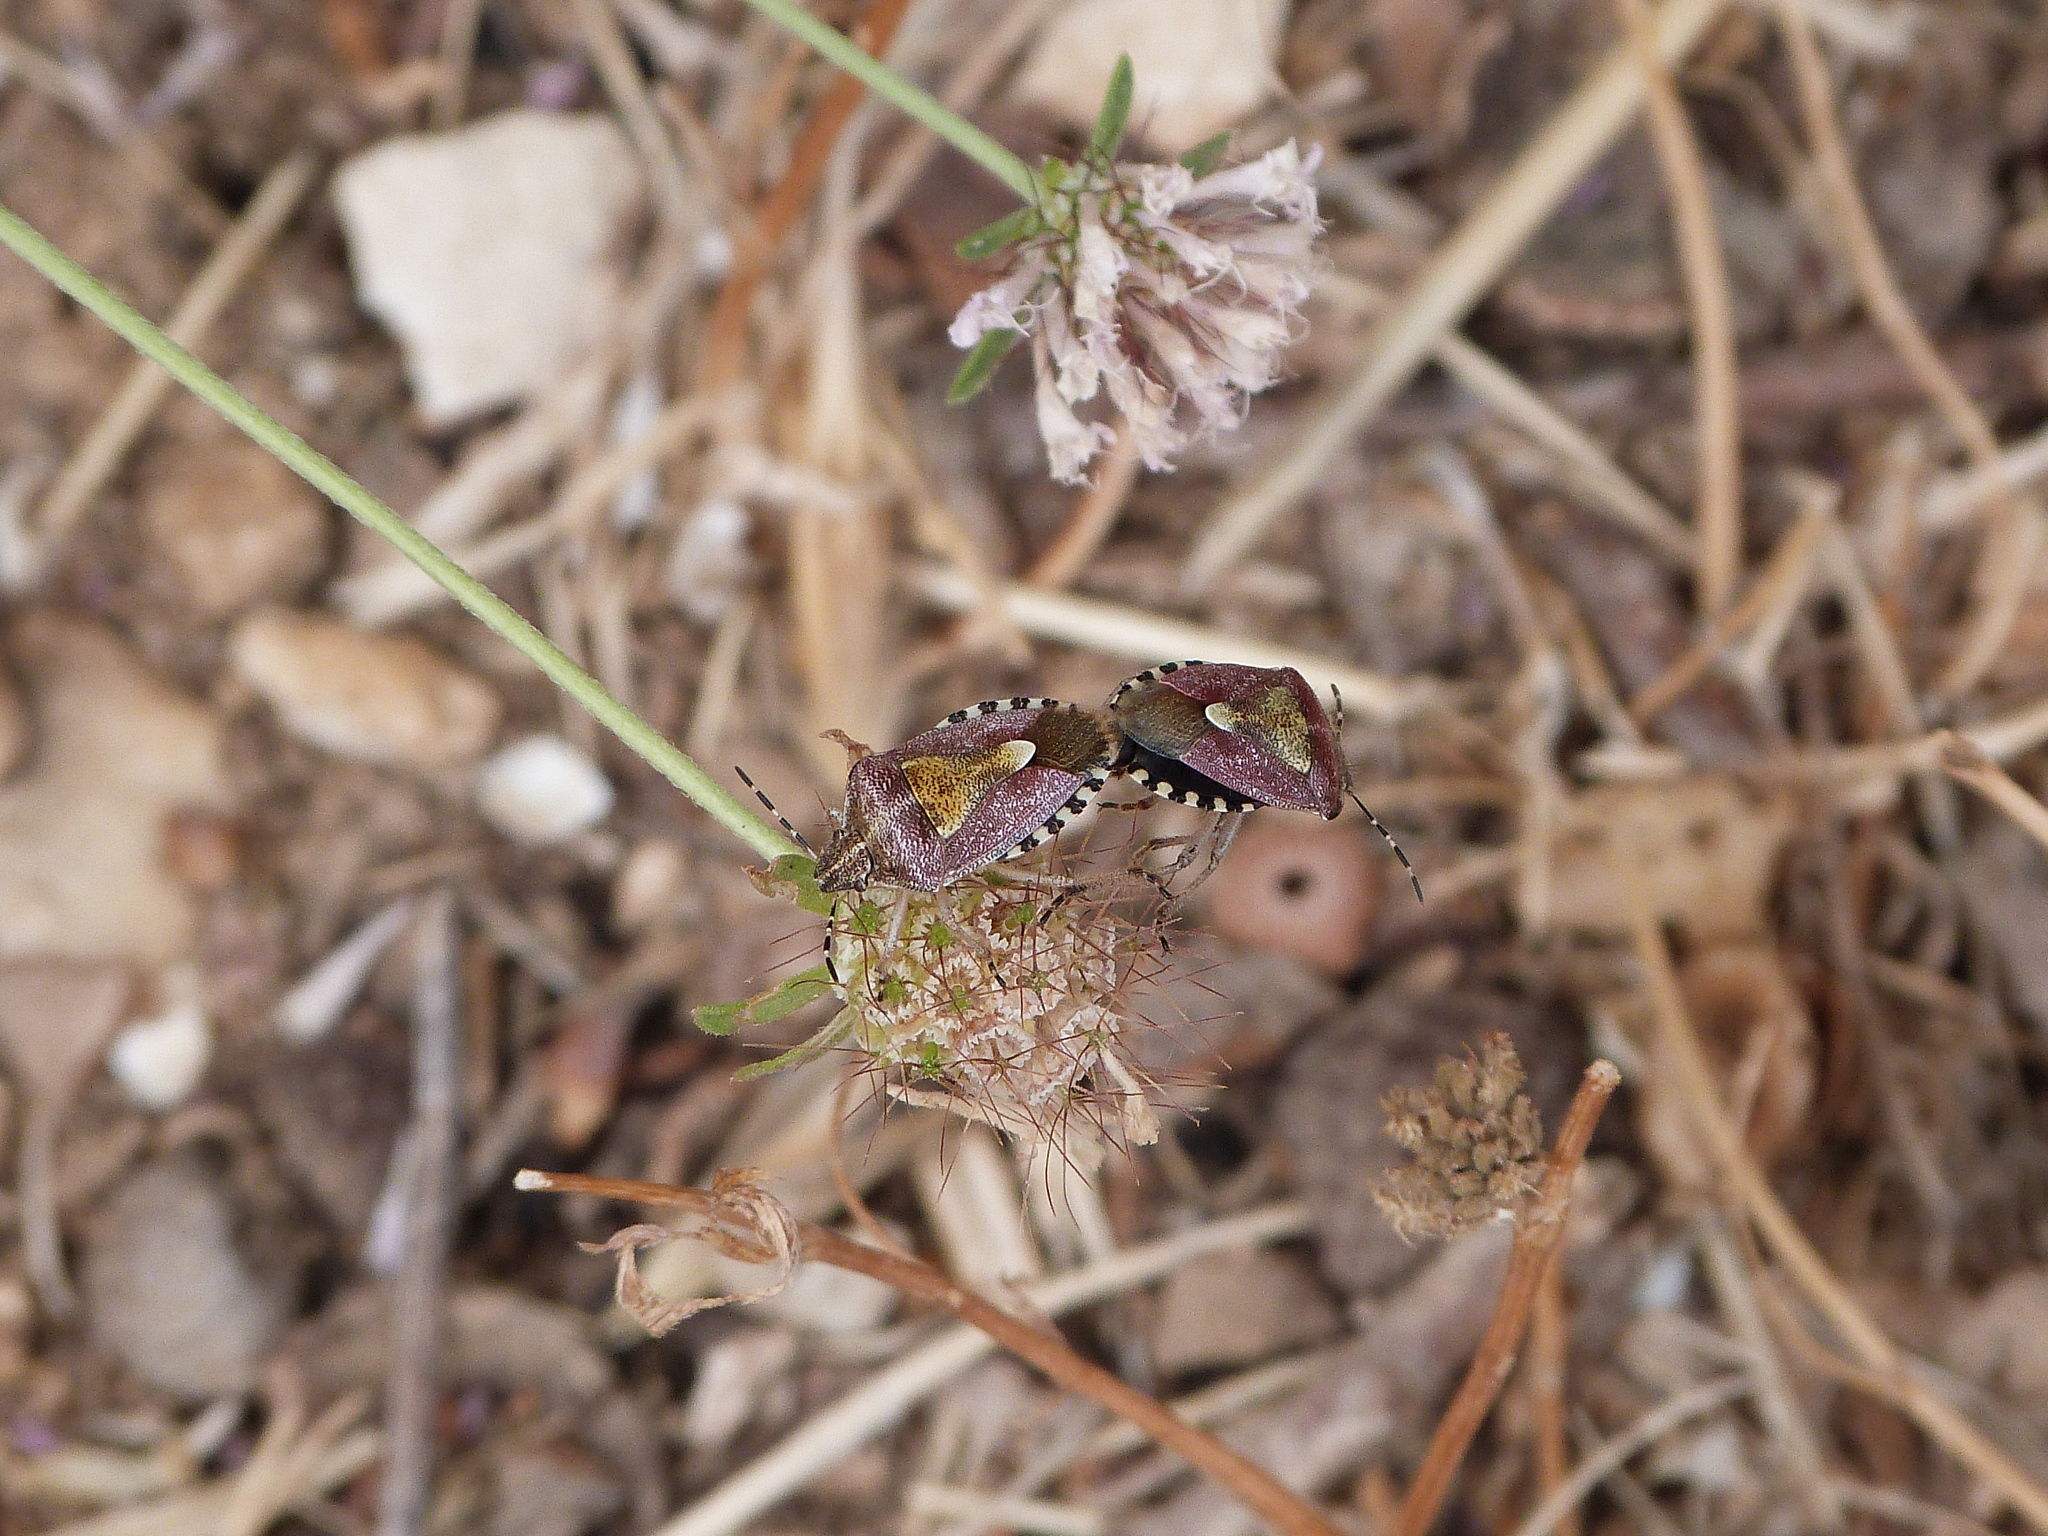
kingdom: Animalia
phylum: Arthropoda
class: Insecta
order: Hemiptera
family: Pentatomidae
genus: Dolycoris
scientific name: Dolycoris baccarum
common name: Sloe bug
